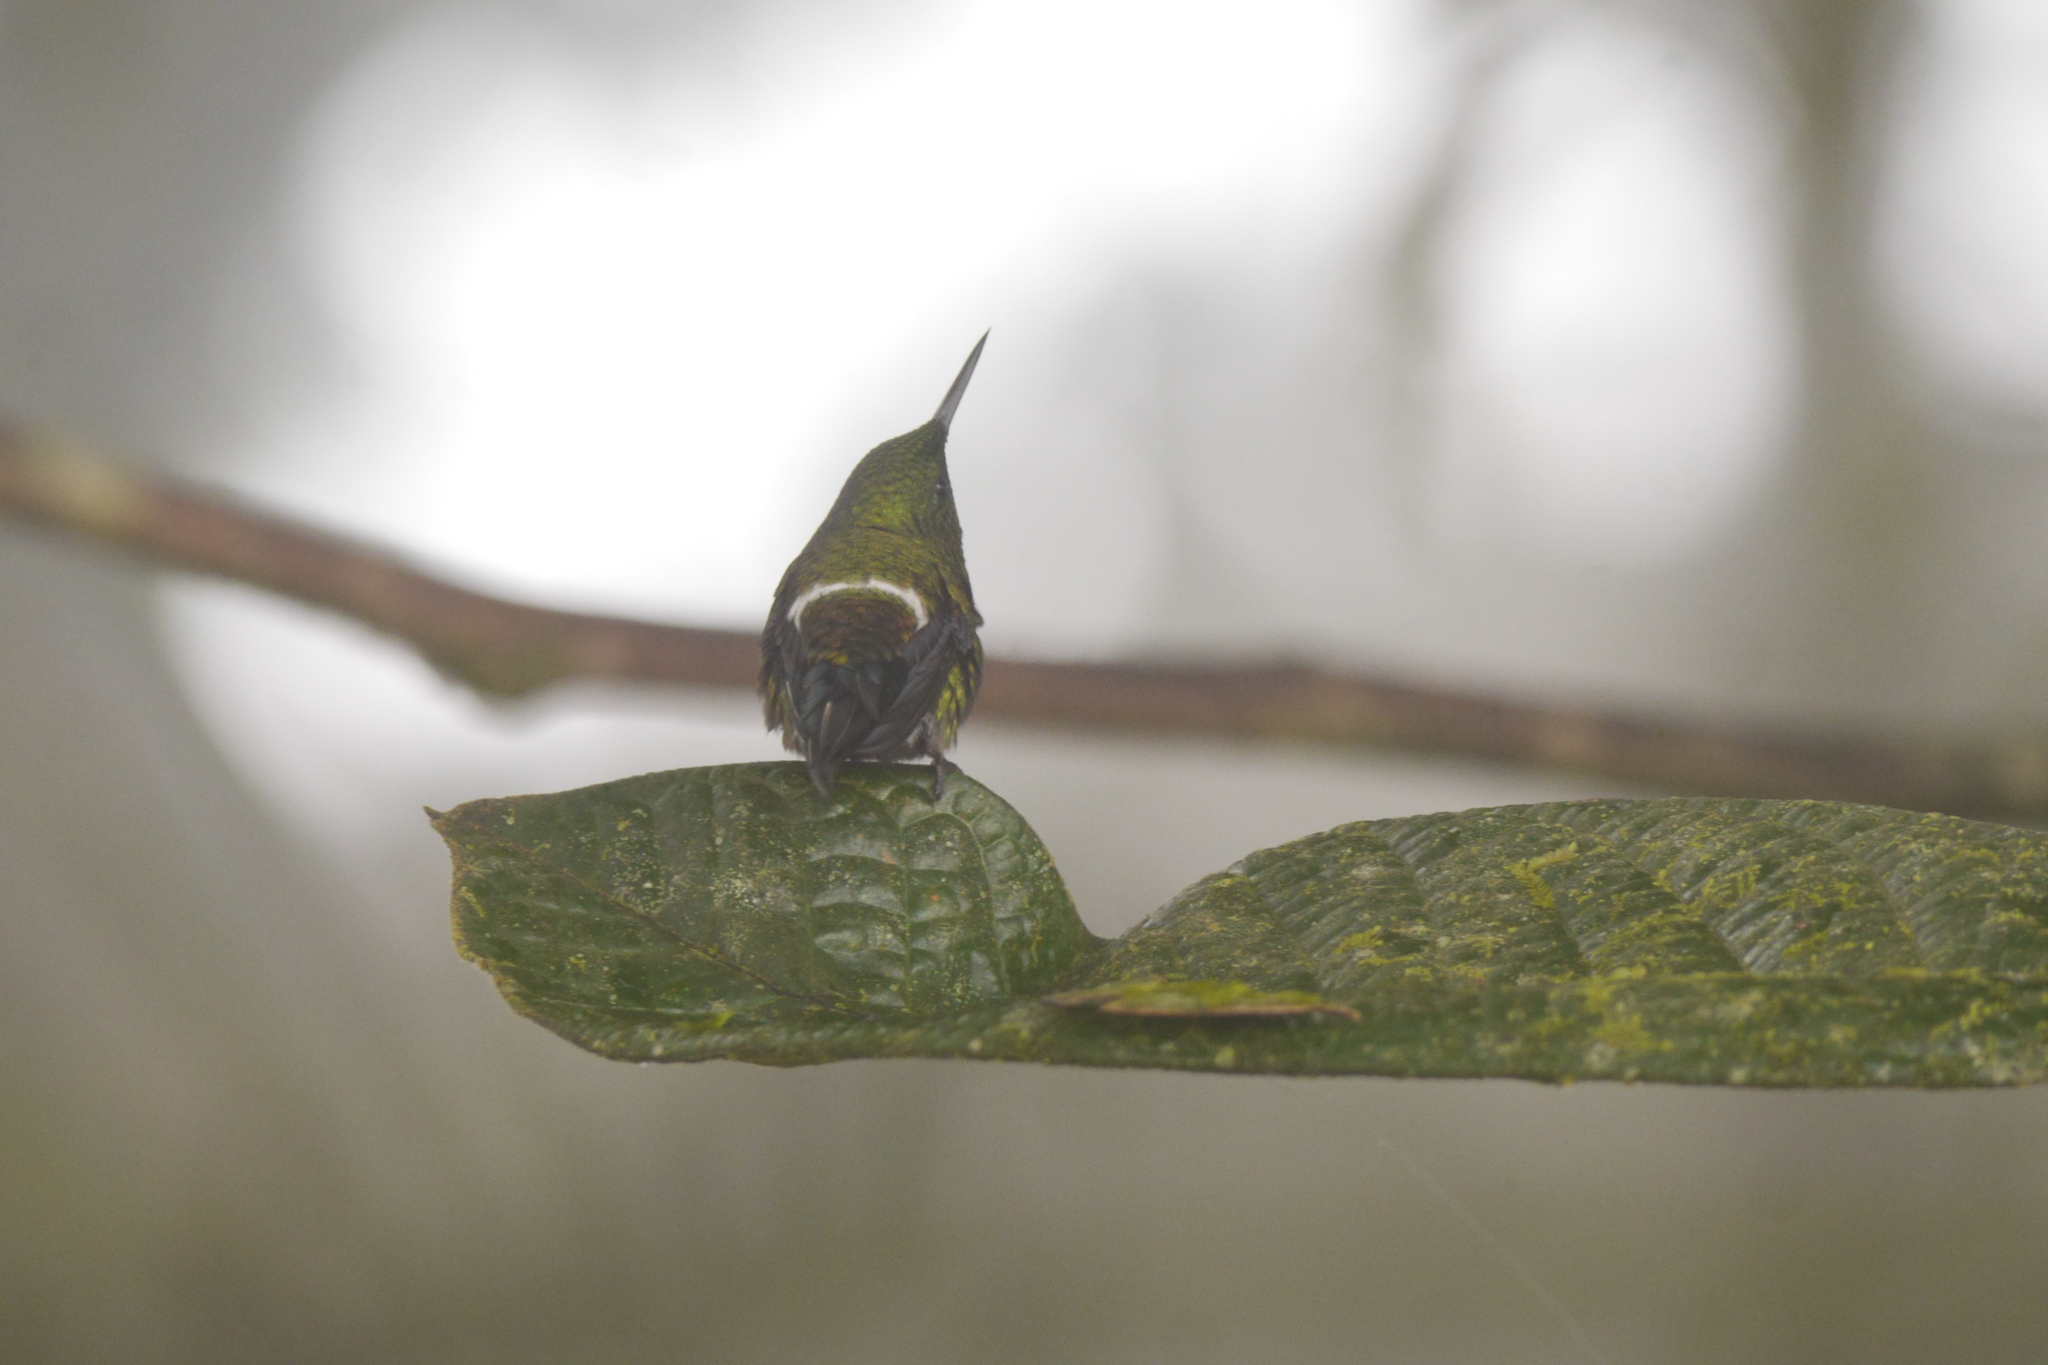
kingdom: Animalia
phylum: Chordata
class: Aves
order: Apodiformes
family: Trochilidae
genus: Discosura
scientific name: Discosura conversii
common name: Green thorntail
